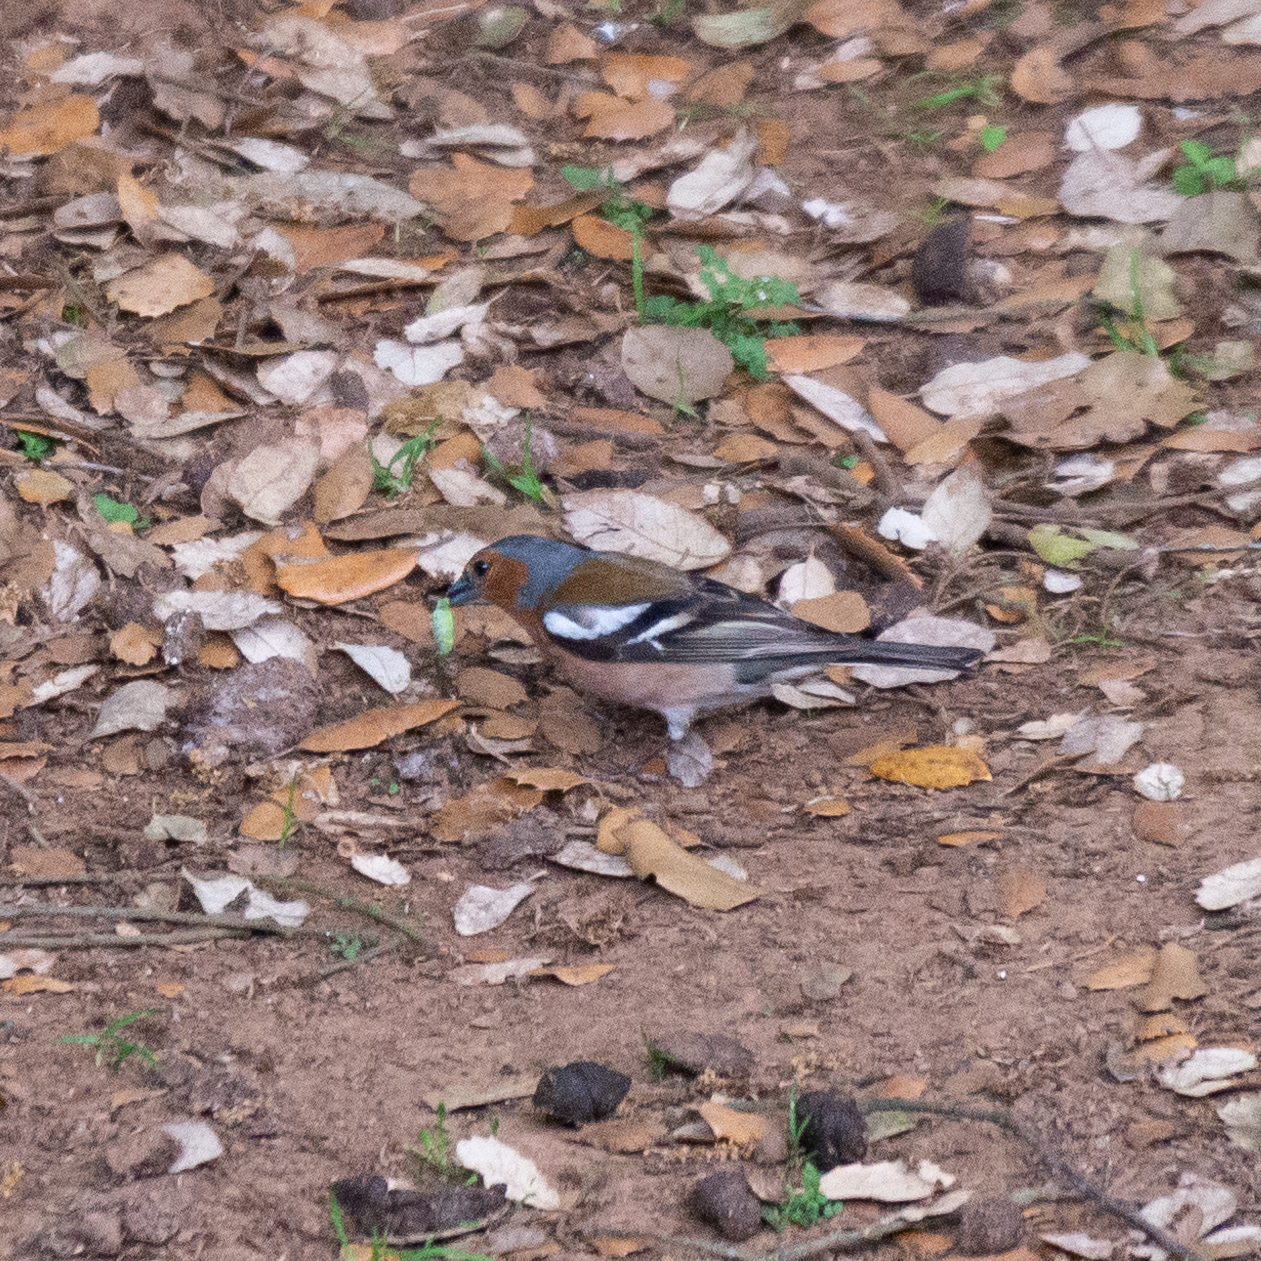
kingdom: Animalia
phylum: Chordata
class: Aves
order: Passeriformes
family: Fringillidae
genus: Fringilla
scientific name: Fringilla coelebs
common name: Common chaffinch
